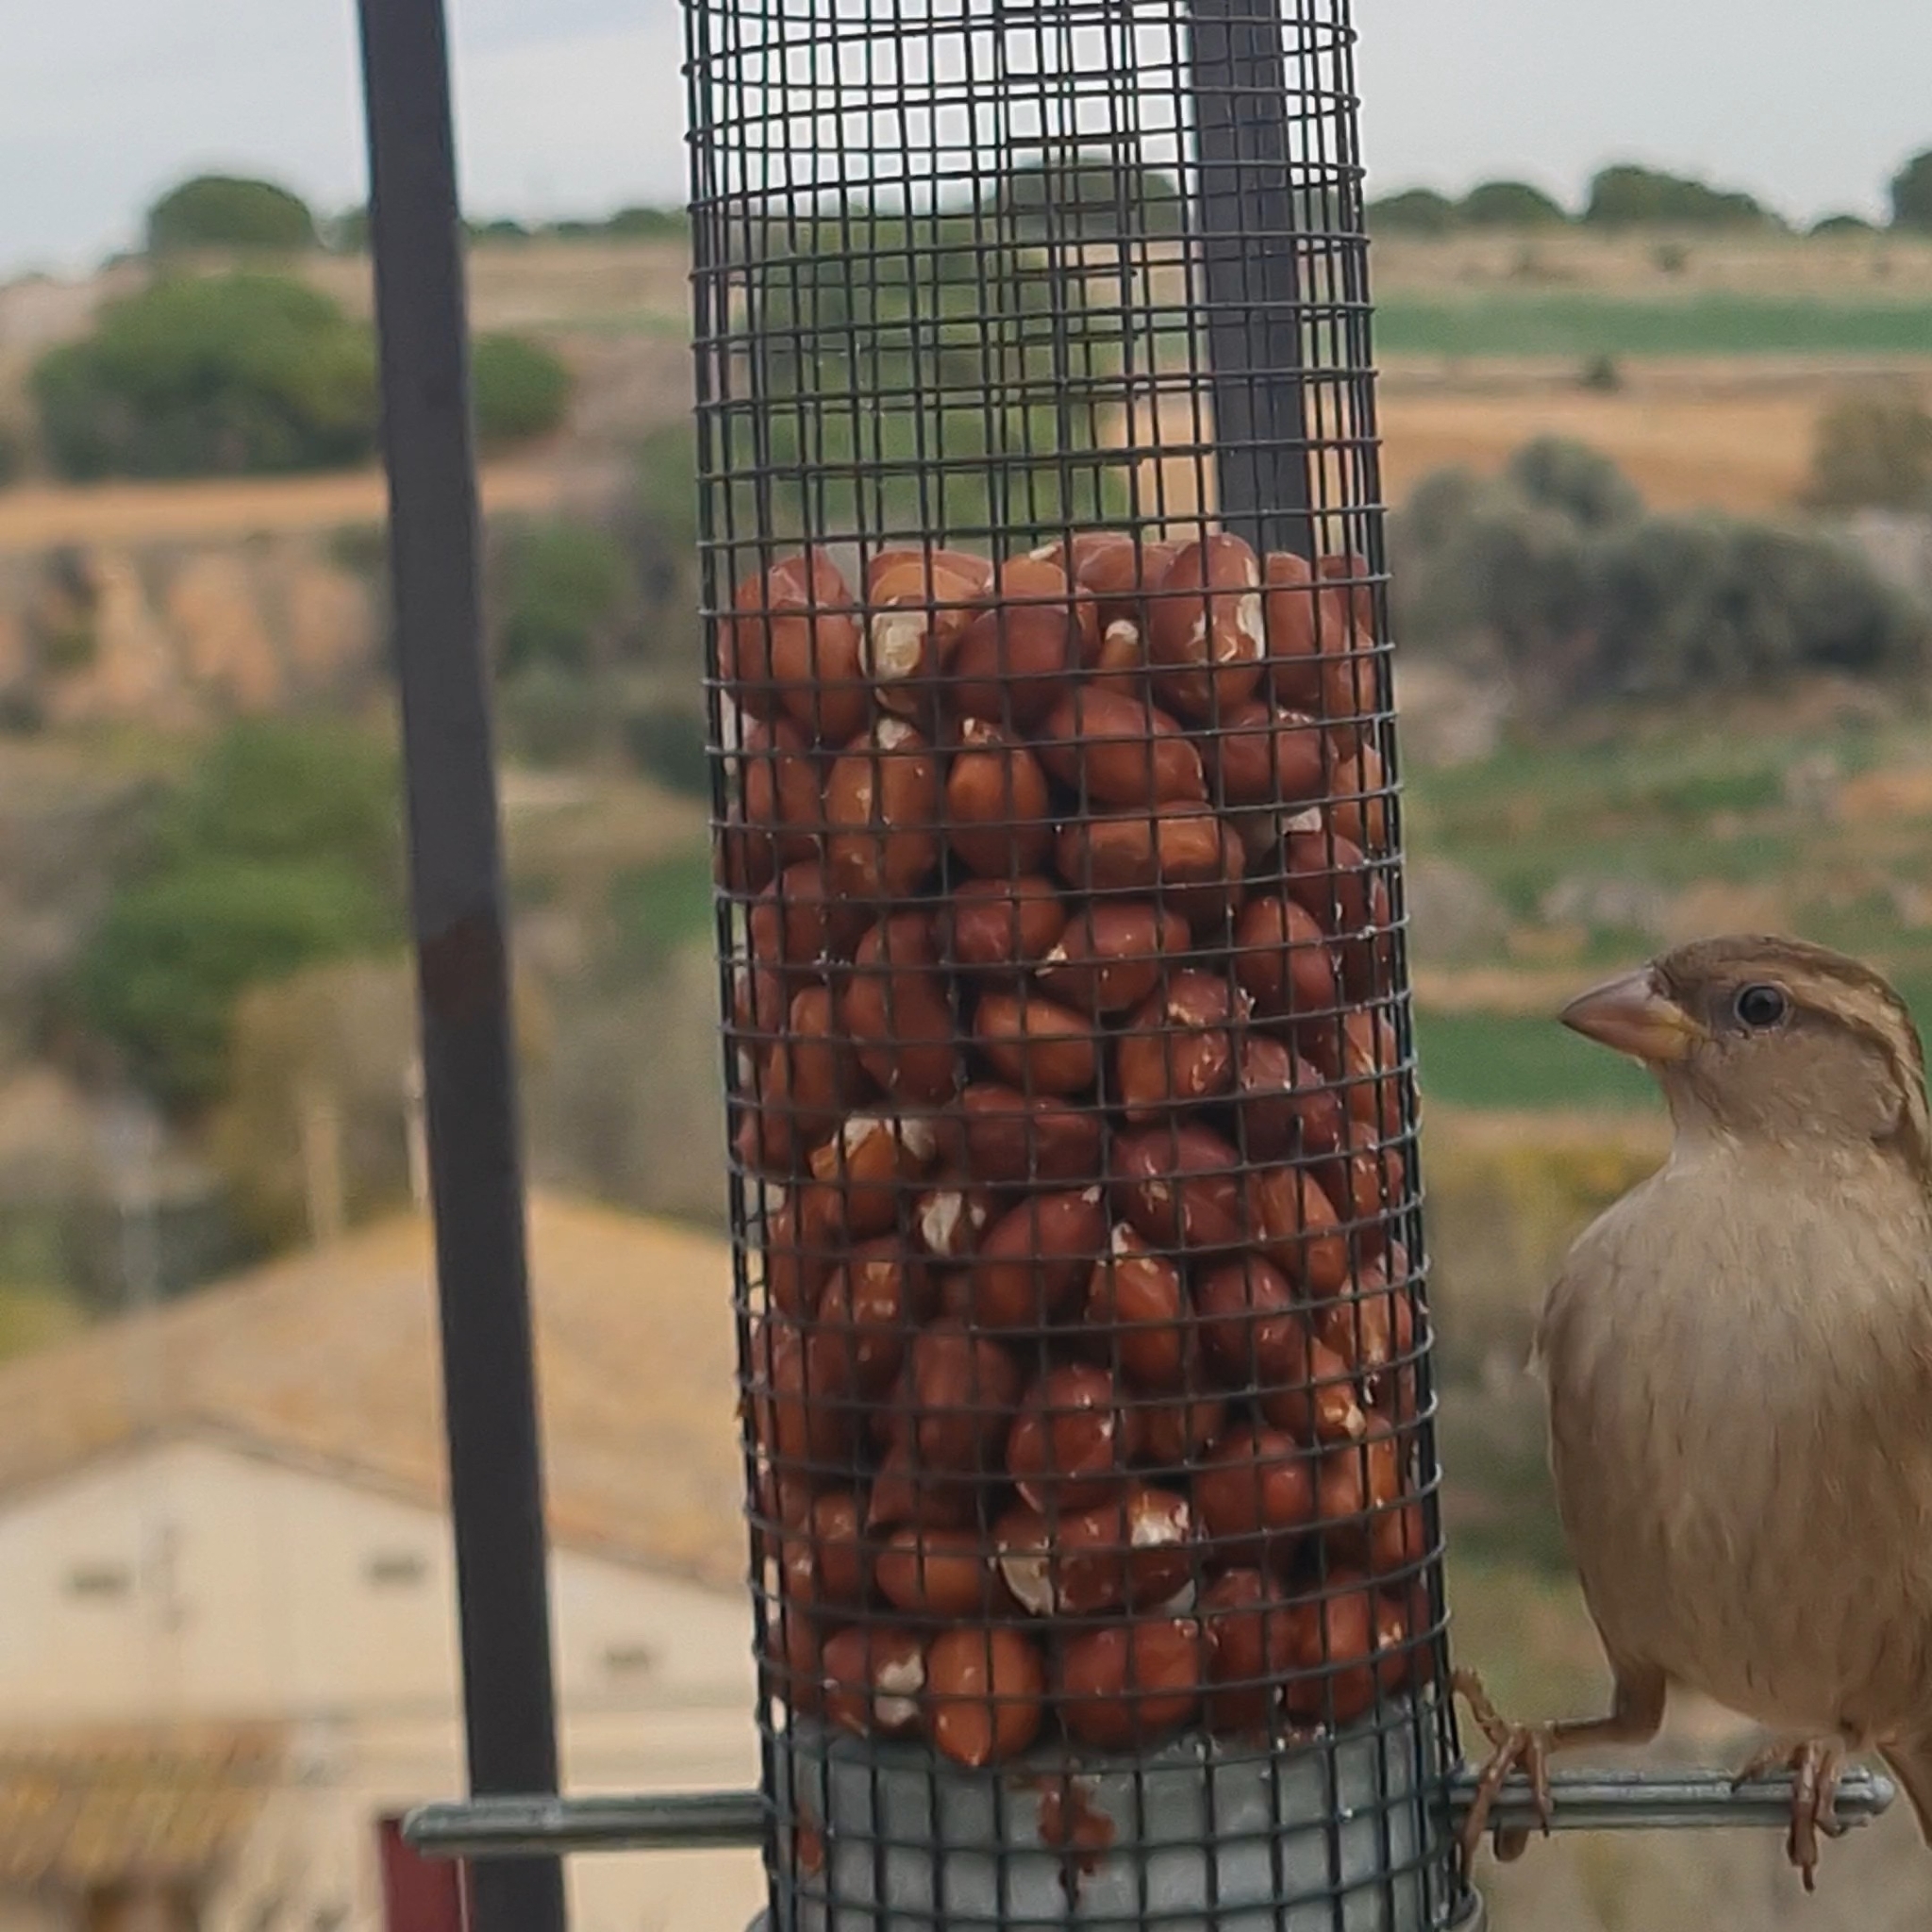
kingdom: Animalia
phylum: Chordata
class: Aves
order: Passeriformes
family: Passeridae
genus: Passer
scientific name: Passer domesticus
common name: House sparrow
